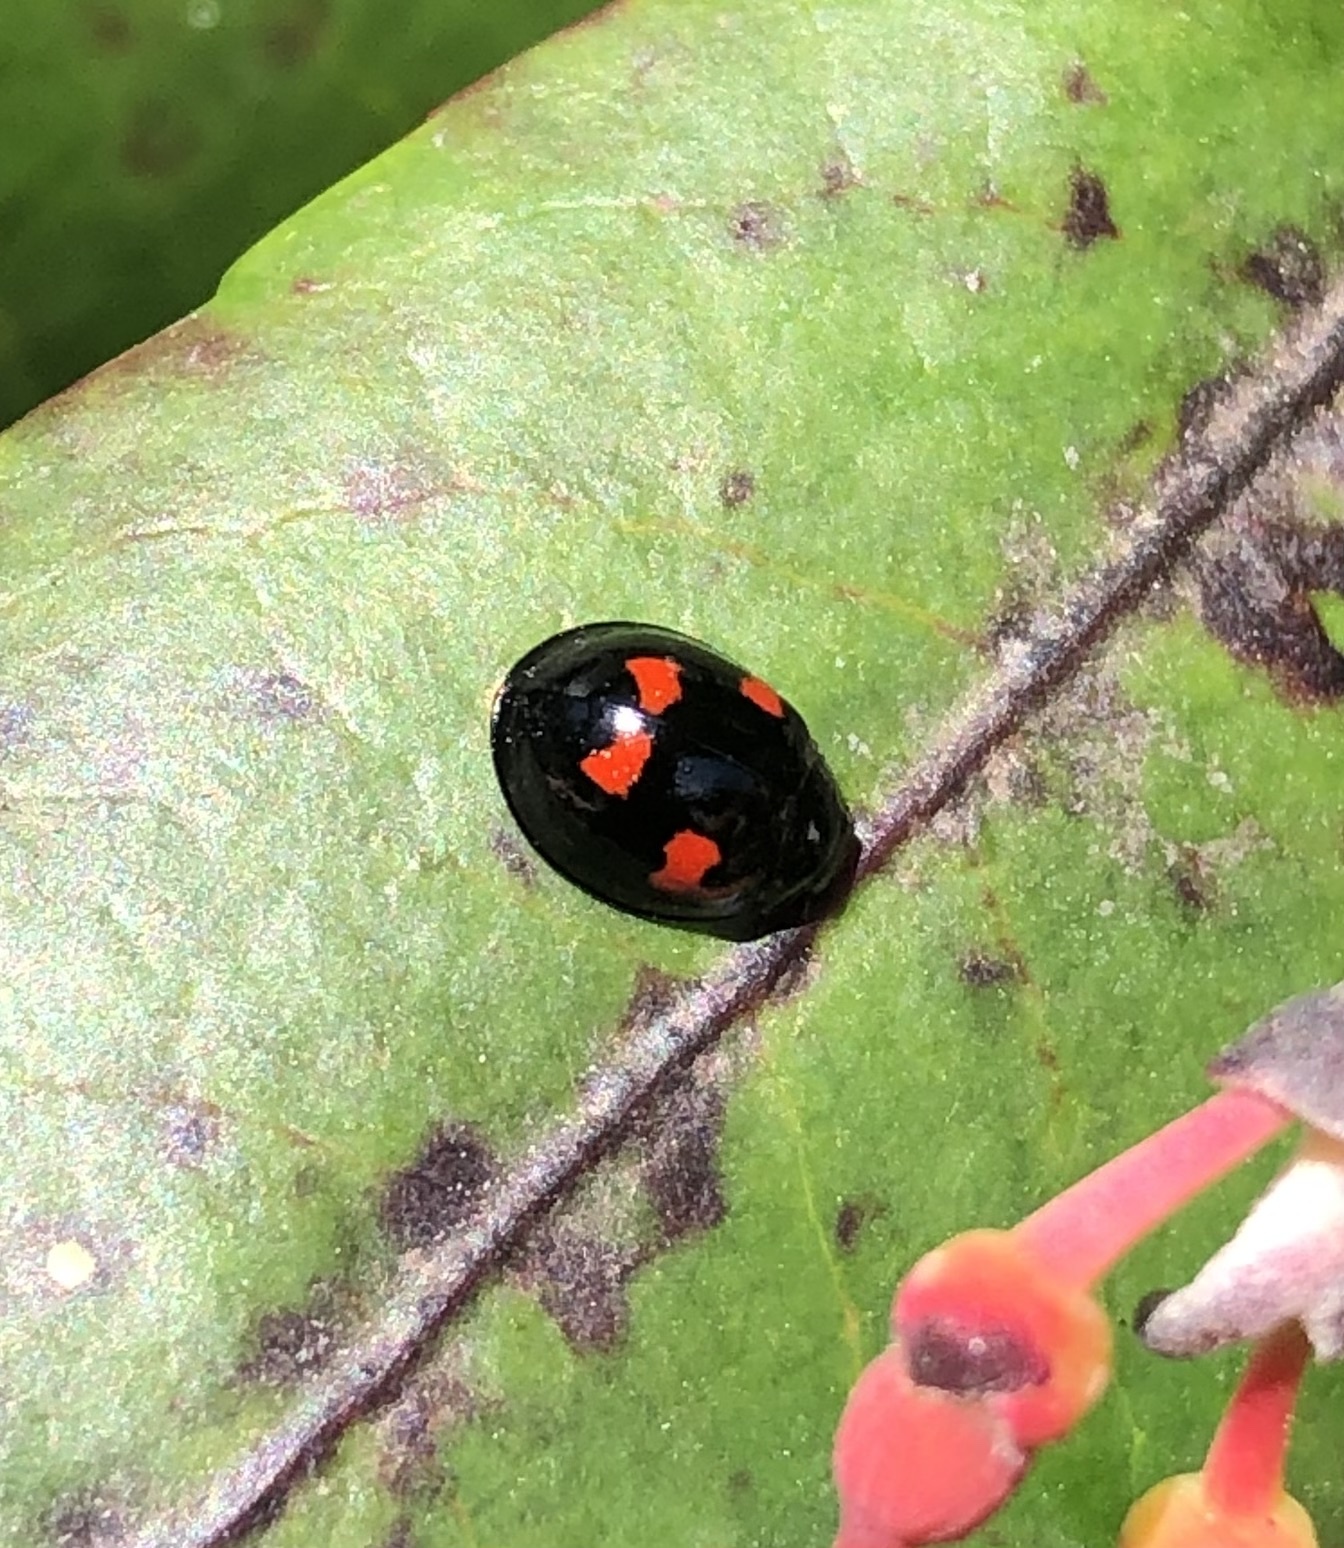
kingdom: Animalia
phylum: Arthropoda
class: Insecta
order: Coleoptera
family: Coccinellidae
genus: Brumus
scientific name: Brumus quadripustulatus
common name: Ladybird beetle
